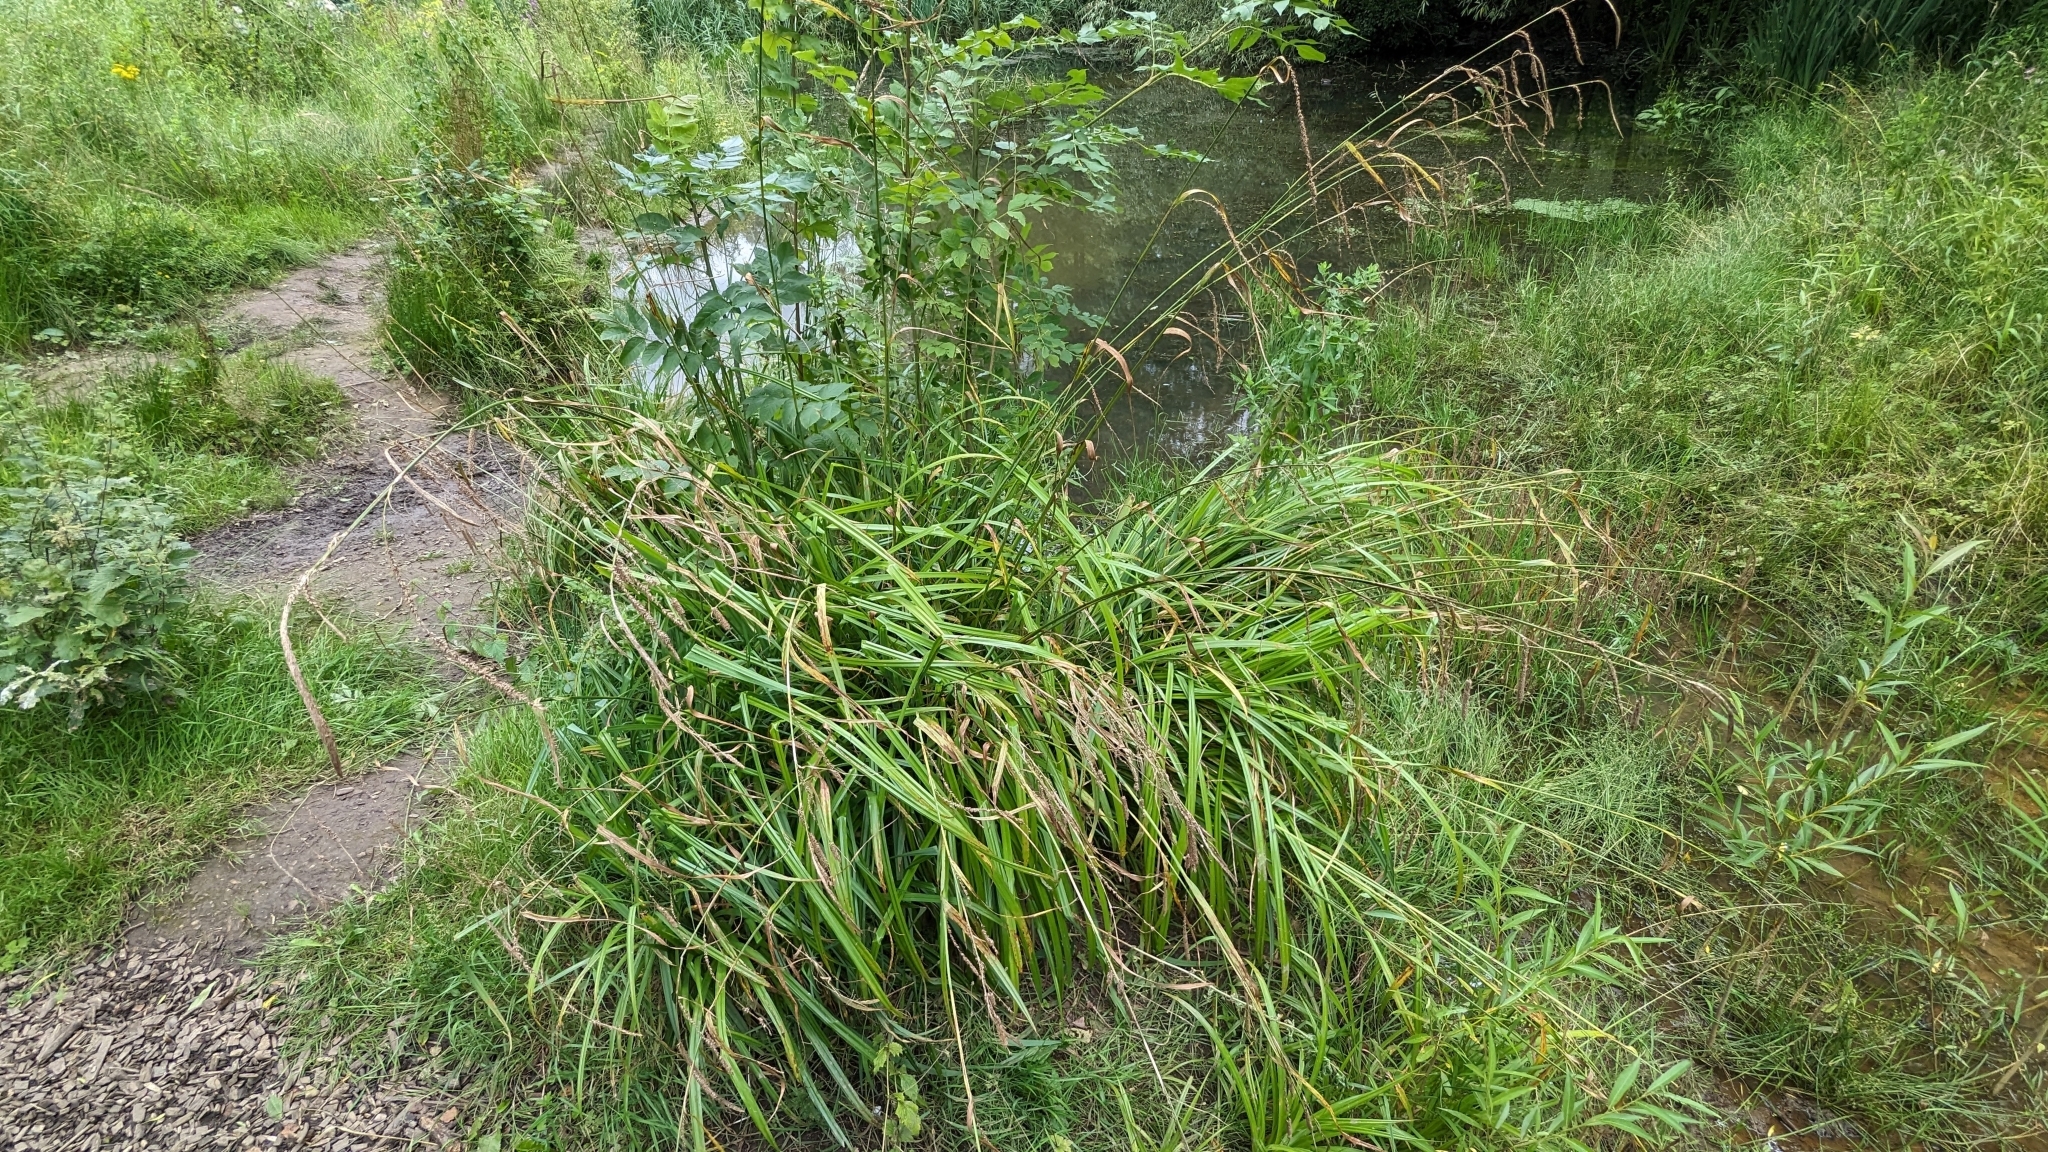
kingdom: Plantae
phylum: Tracheophyta
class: Liliopsida
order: Poales
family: Cyperaceae
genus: Carex
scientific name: Carex pendula
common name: Pendulous sedge
